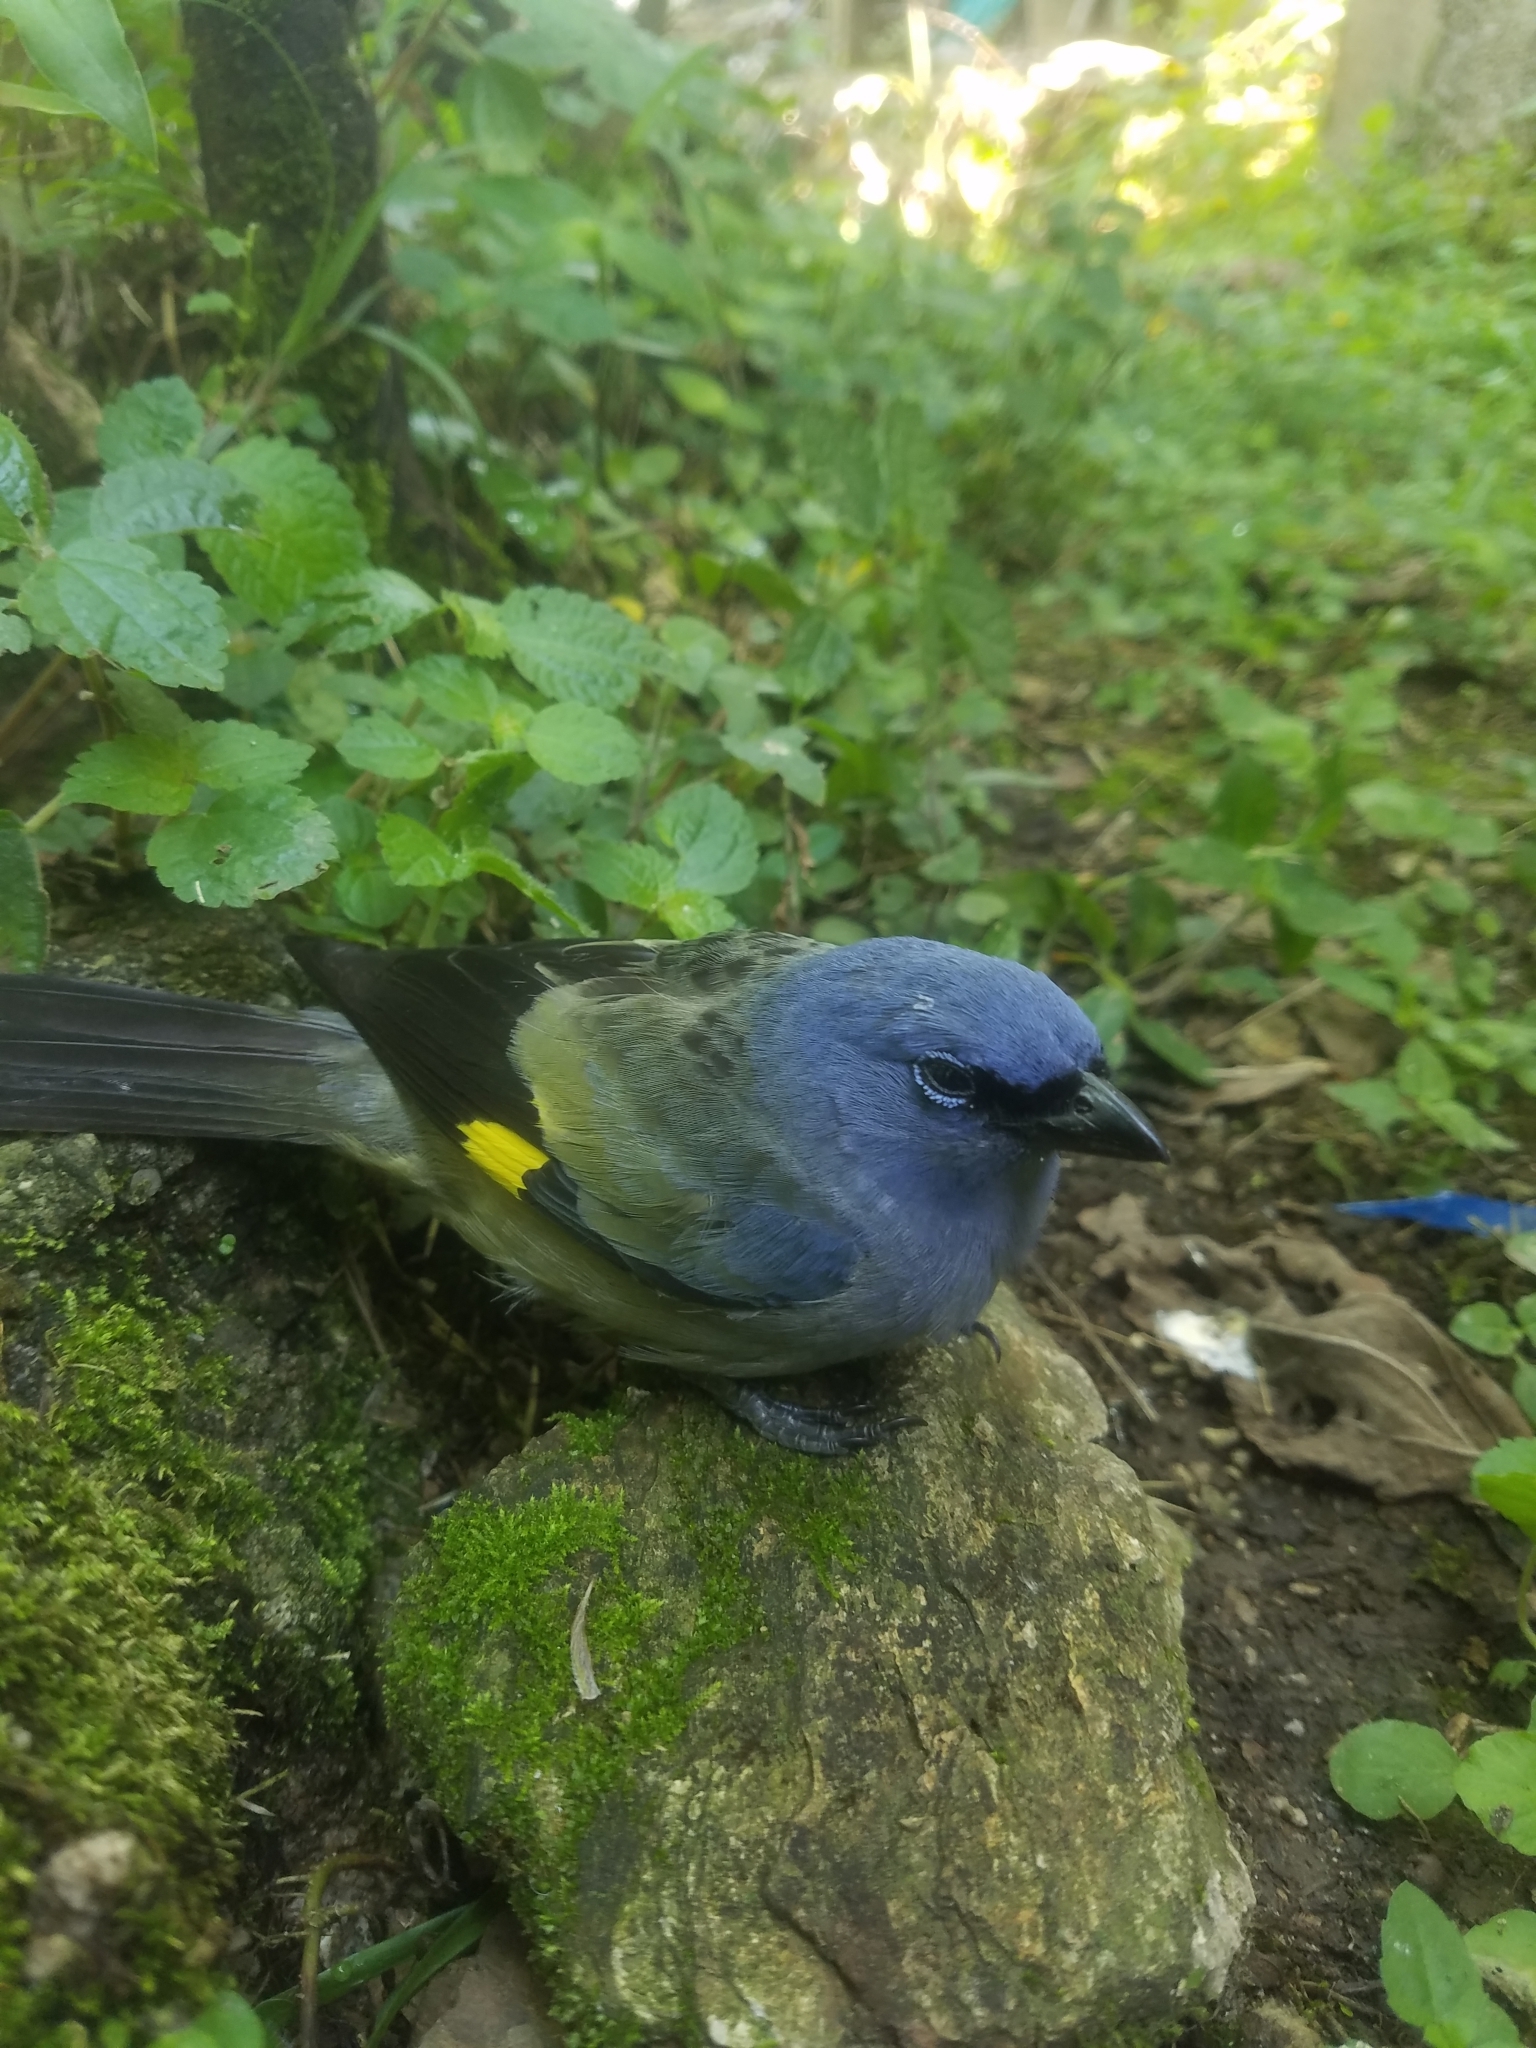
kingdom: Animalia
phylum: Chordata
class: Aves
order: Passeriformes
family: Thraupidae
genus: Thraupis
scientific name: Thraupis abbas
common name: Yellow-winged tanager
